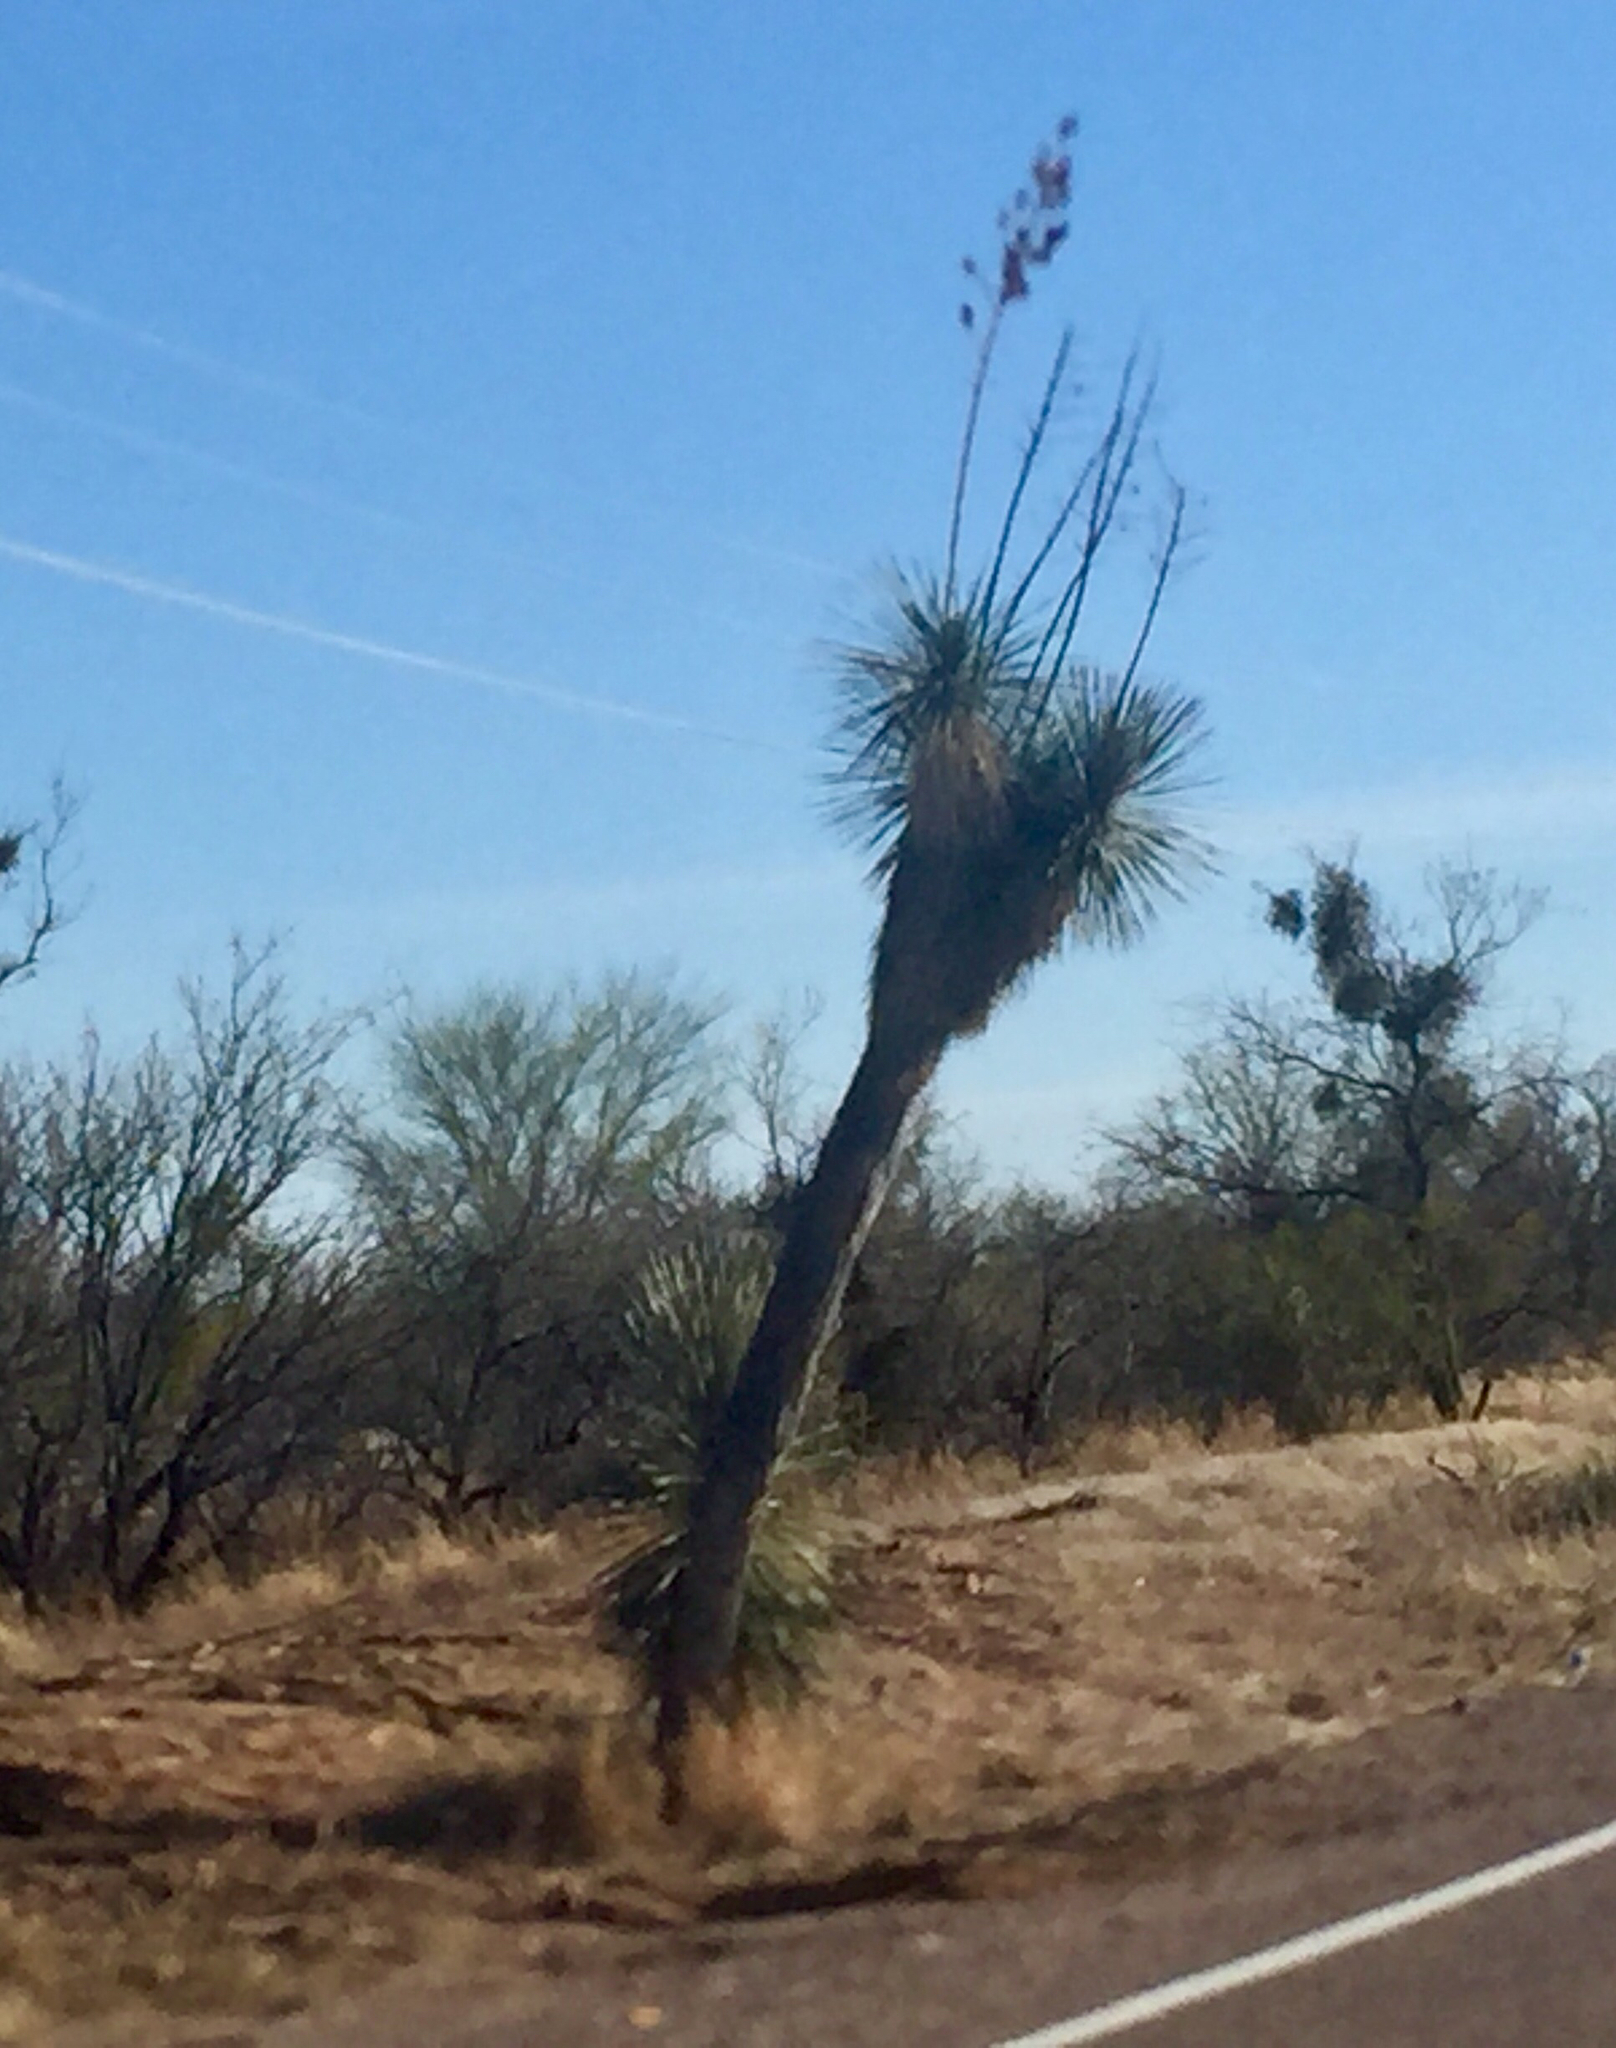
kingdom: Plantae
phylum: Tracheophyta
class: Liliopsida
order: Asparagales
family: Asparagaceae
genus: Yucca
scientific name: Yucca elata
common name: Palmella
